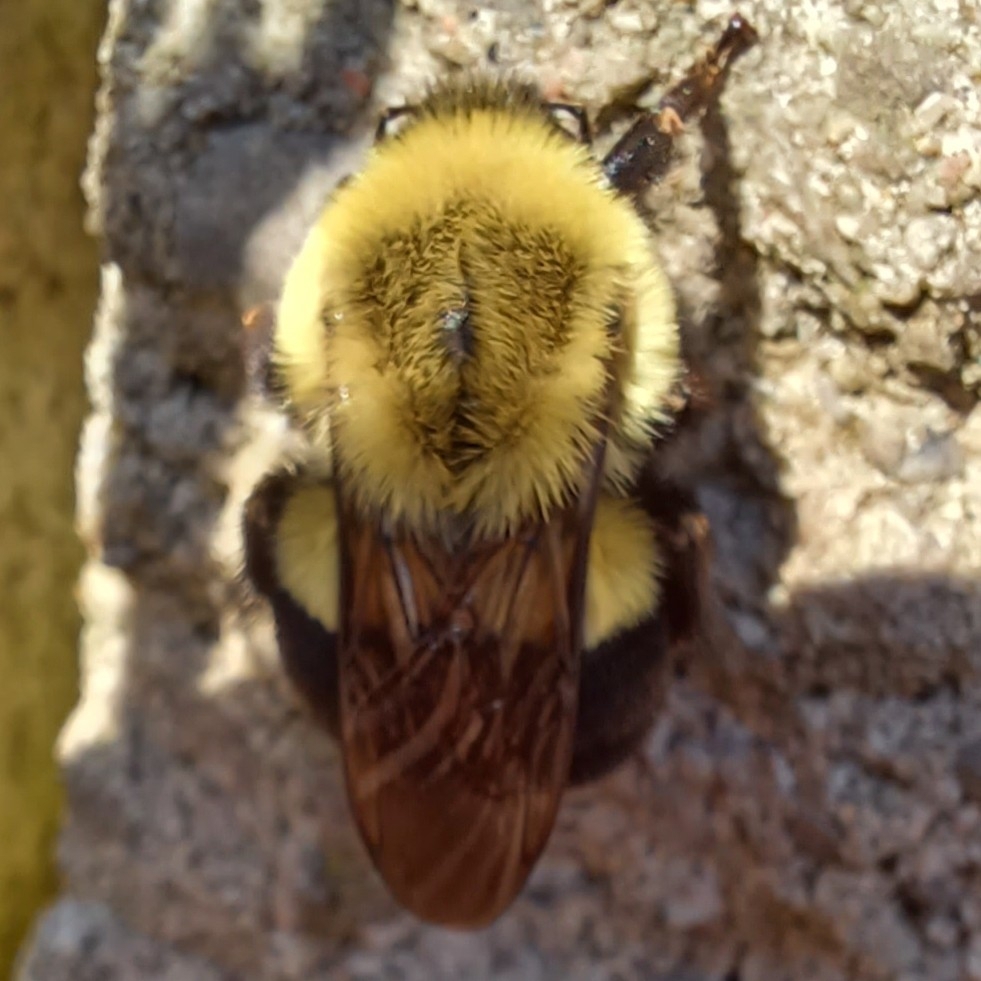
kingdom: Animalia
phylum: Arthropoda
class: Insecta
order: Hymenoptera
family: Apidae
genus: Bombus
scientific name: Bombus impatiens
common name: Common eastern bumble bee
